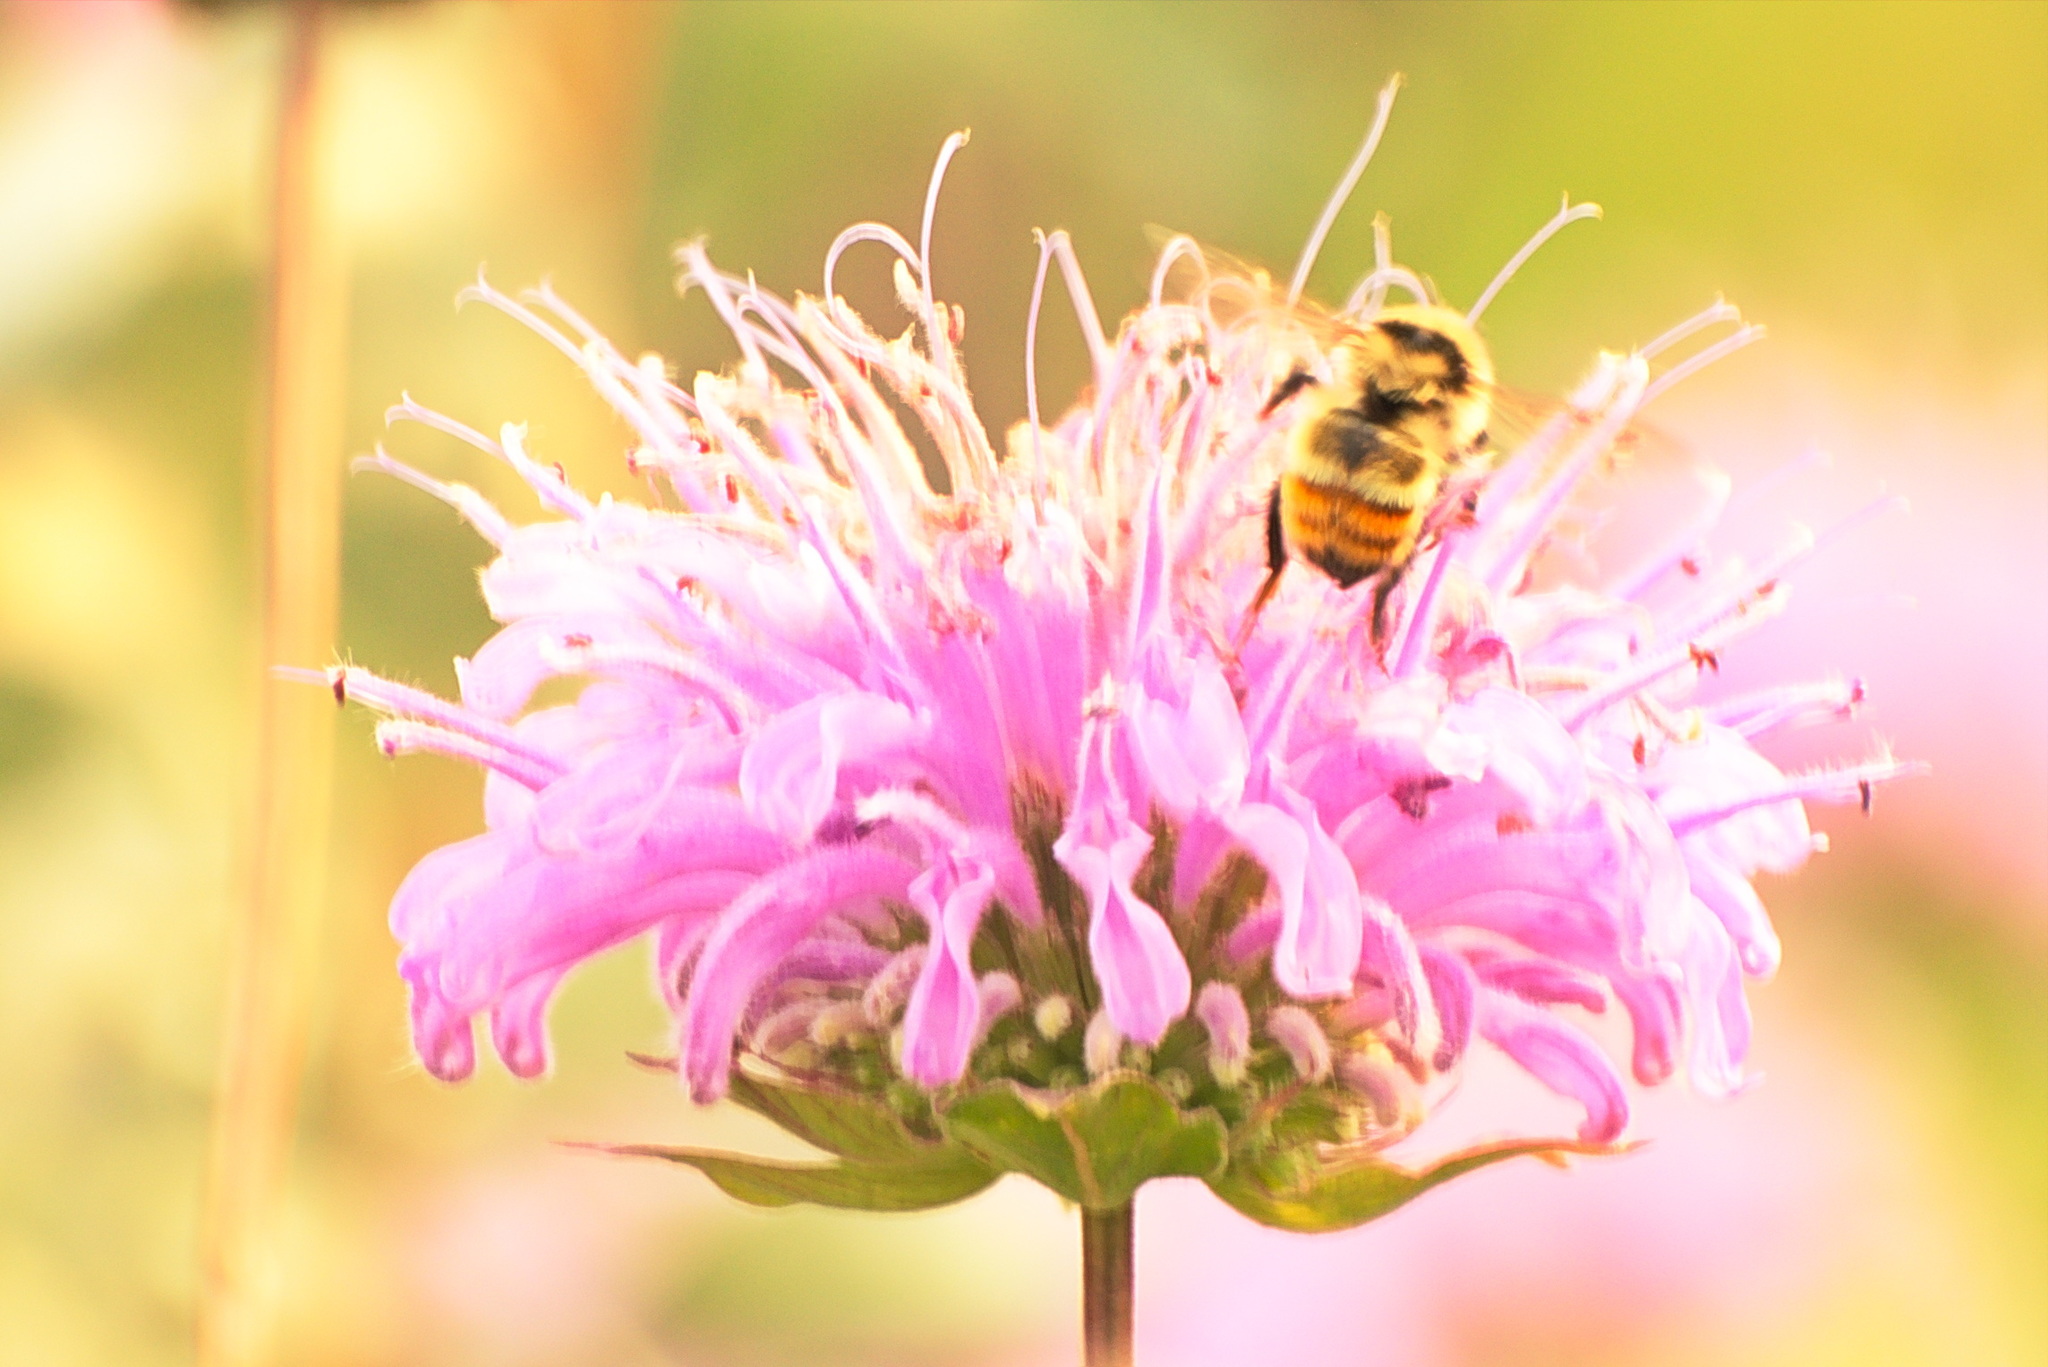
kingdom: Animalia
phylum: Arthropoda
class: Insecta
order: Hymenoptera
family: Apidae
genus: Bombus
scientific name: Bombus centralis
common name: Central bumble bee
